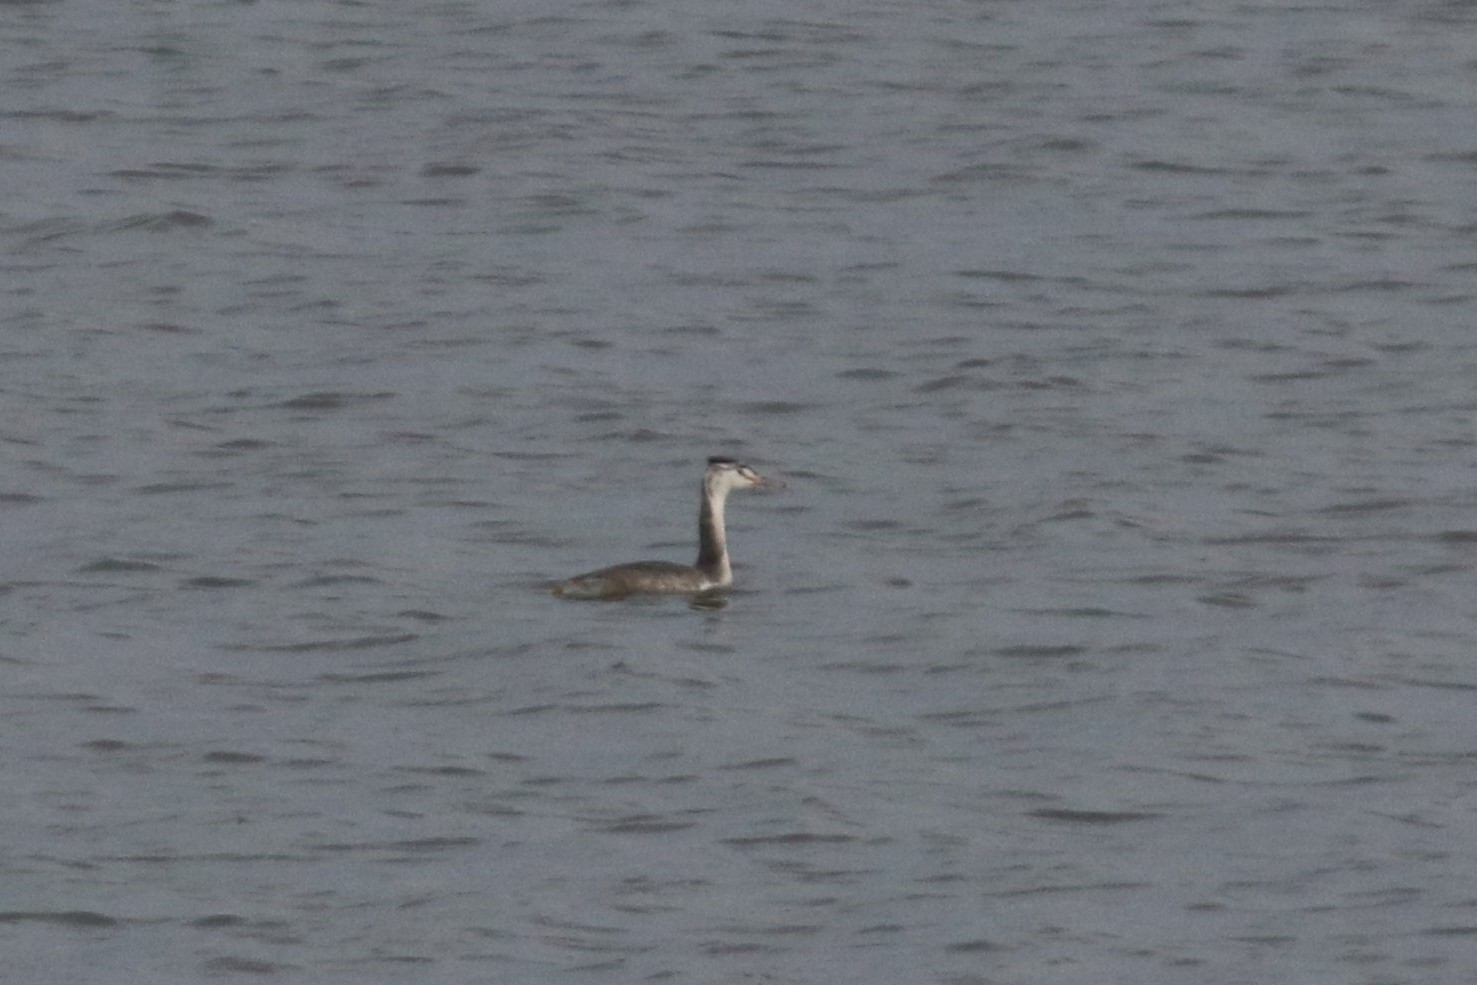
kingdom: Animalia
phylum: Chordata
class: Aves
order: Podicipediformes
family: Podicipedidae
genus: Podiceps
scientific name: Podiceps cristatus
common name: Great crested grebe
